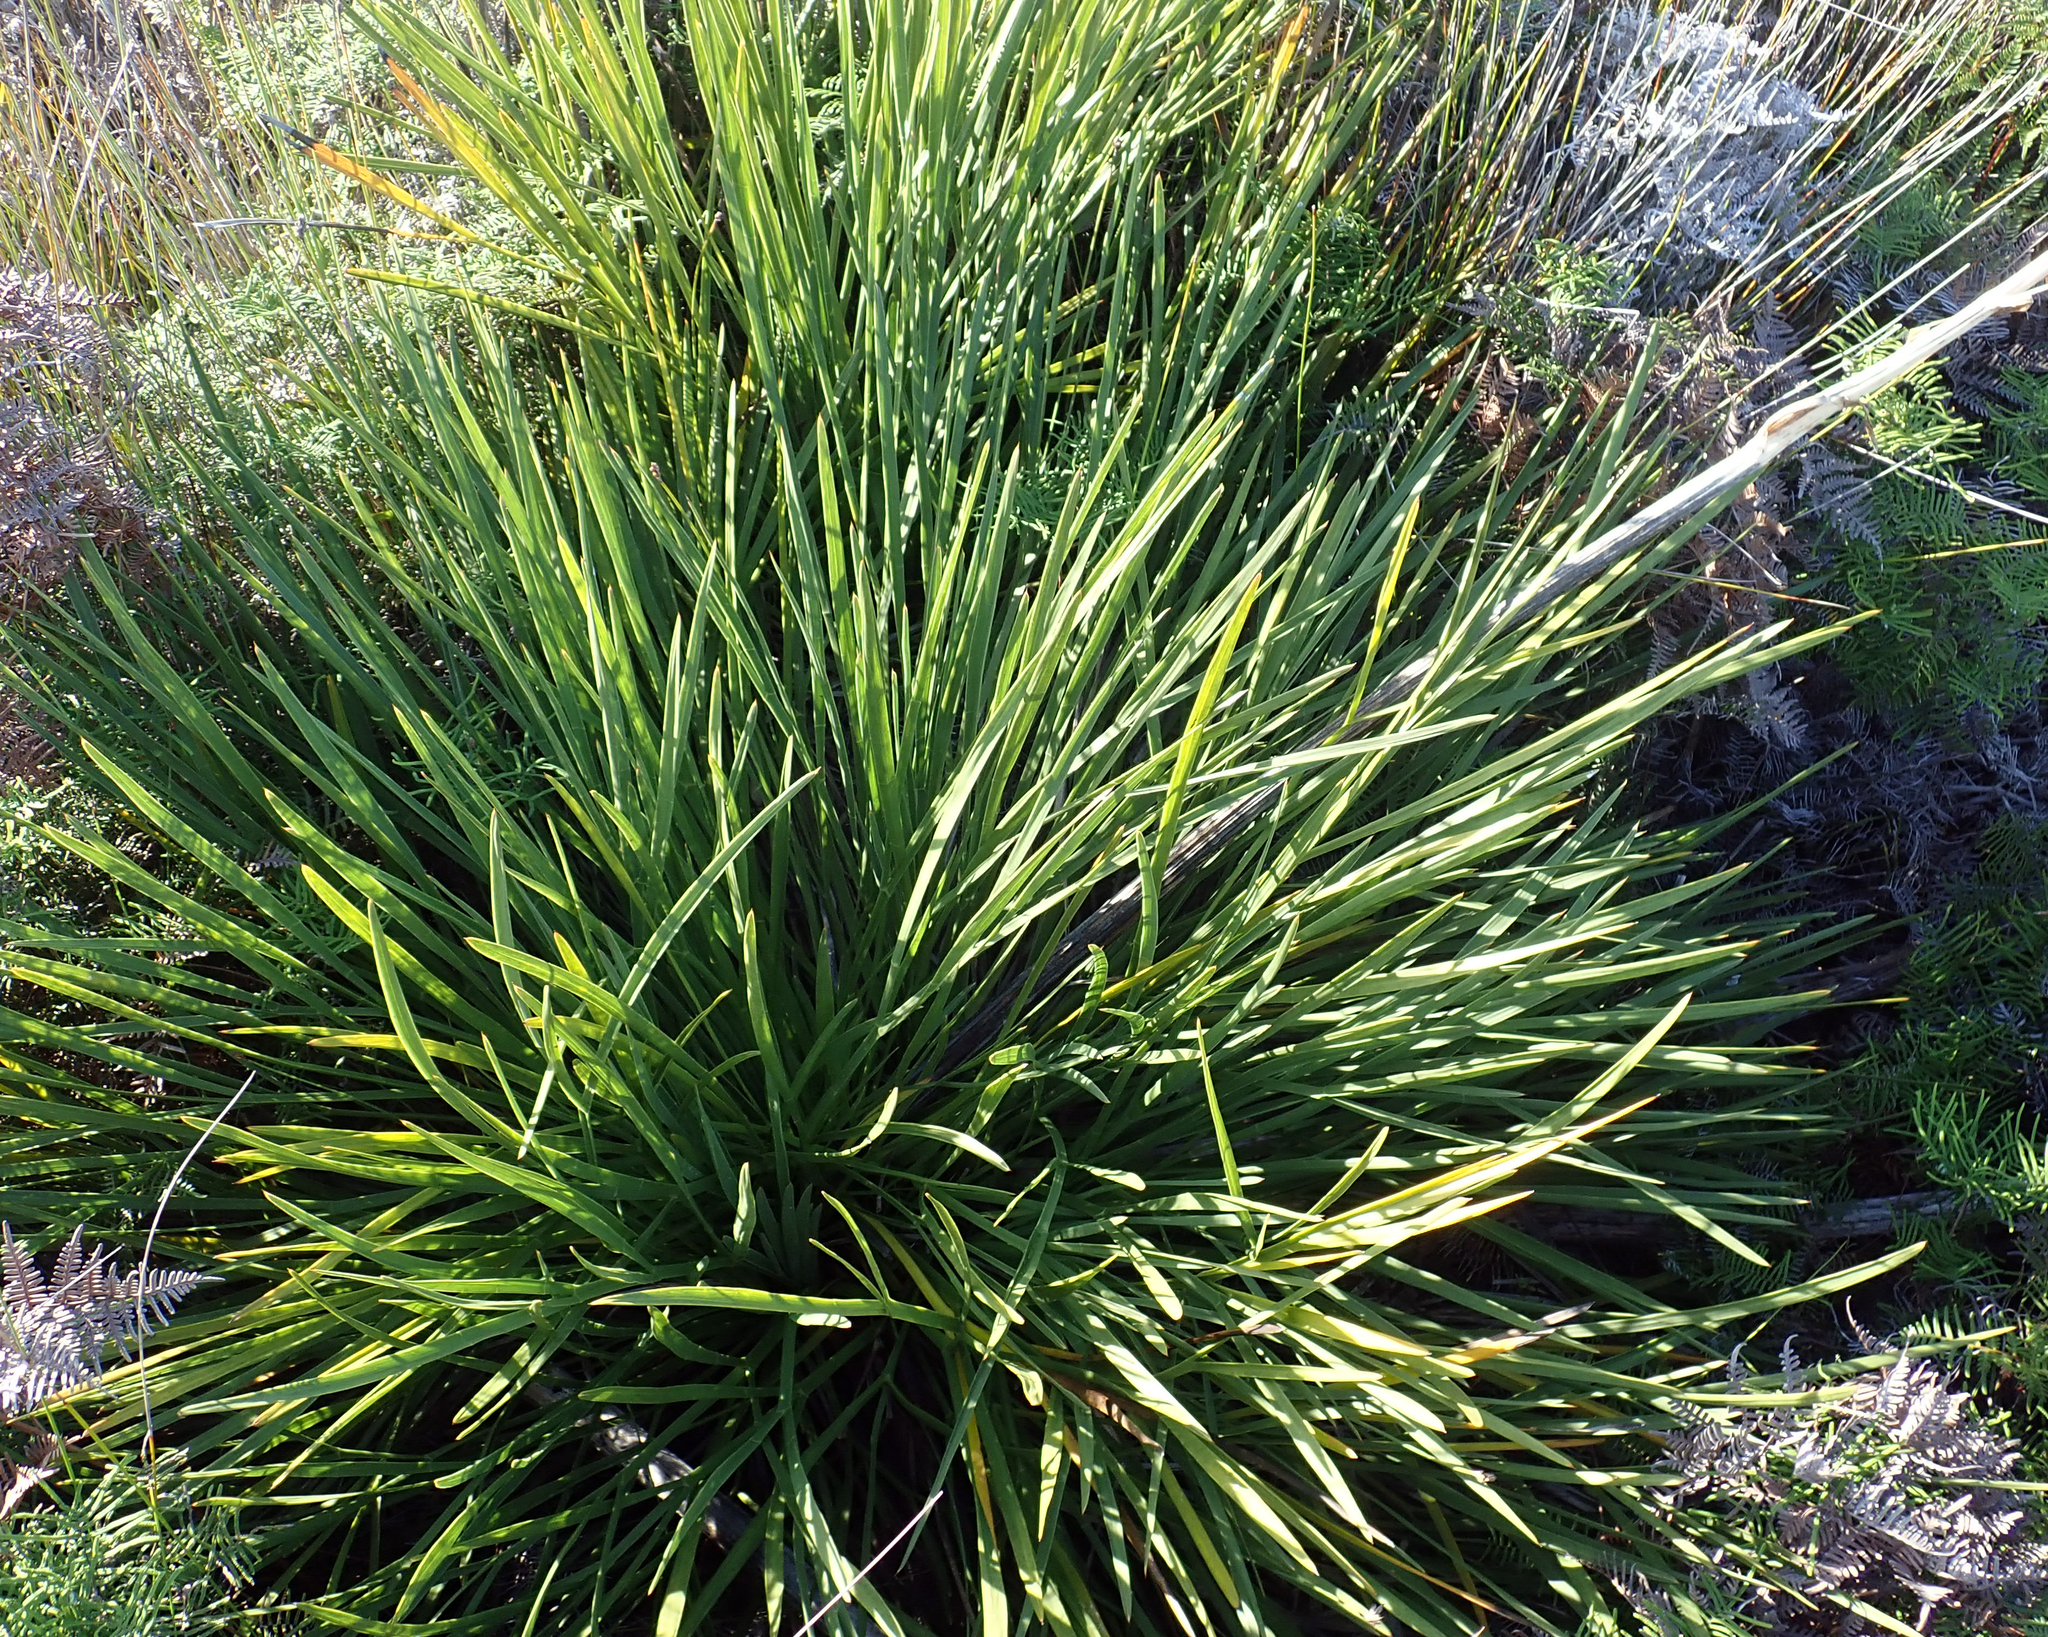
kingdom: Plantae
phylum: Tracheophyta
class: Magnoliopsida
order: Apiales
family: Apiaceae
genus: Aciphylla
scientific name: Aciphylla traversii
